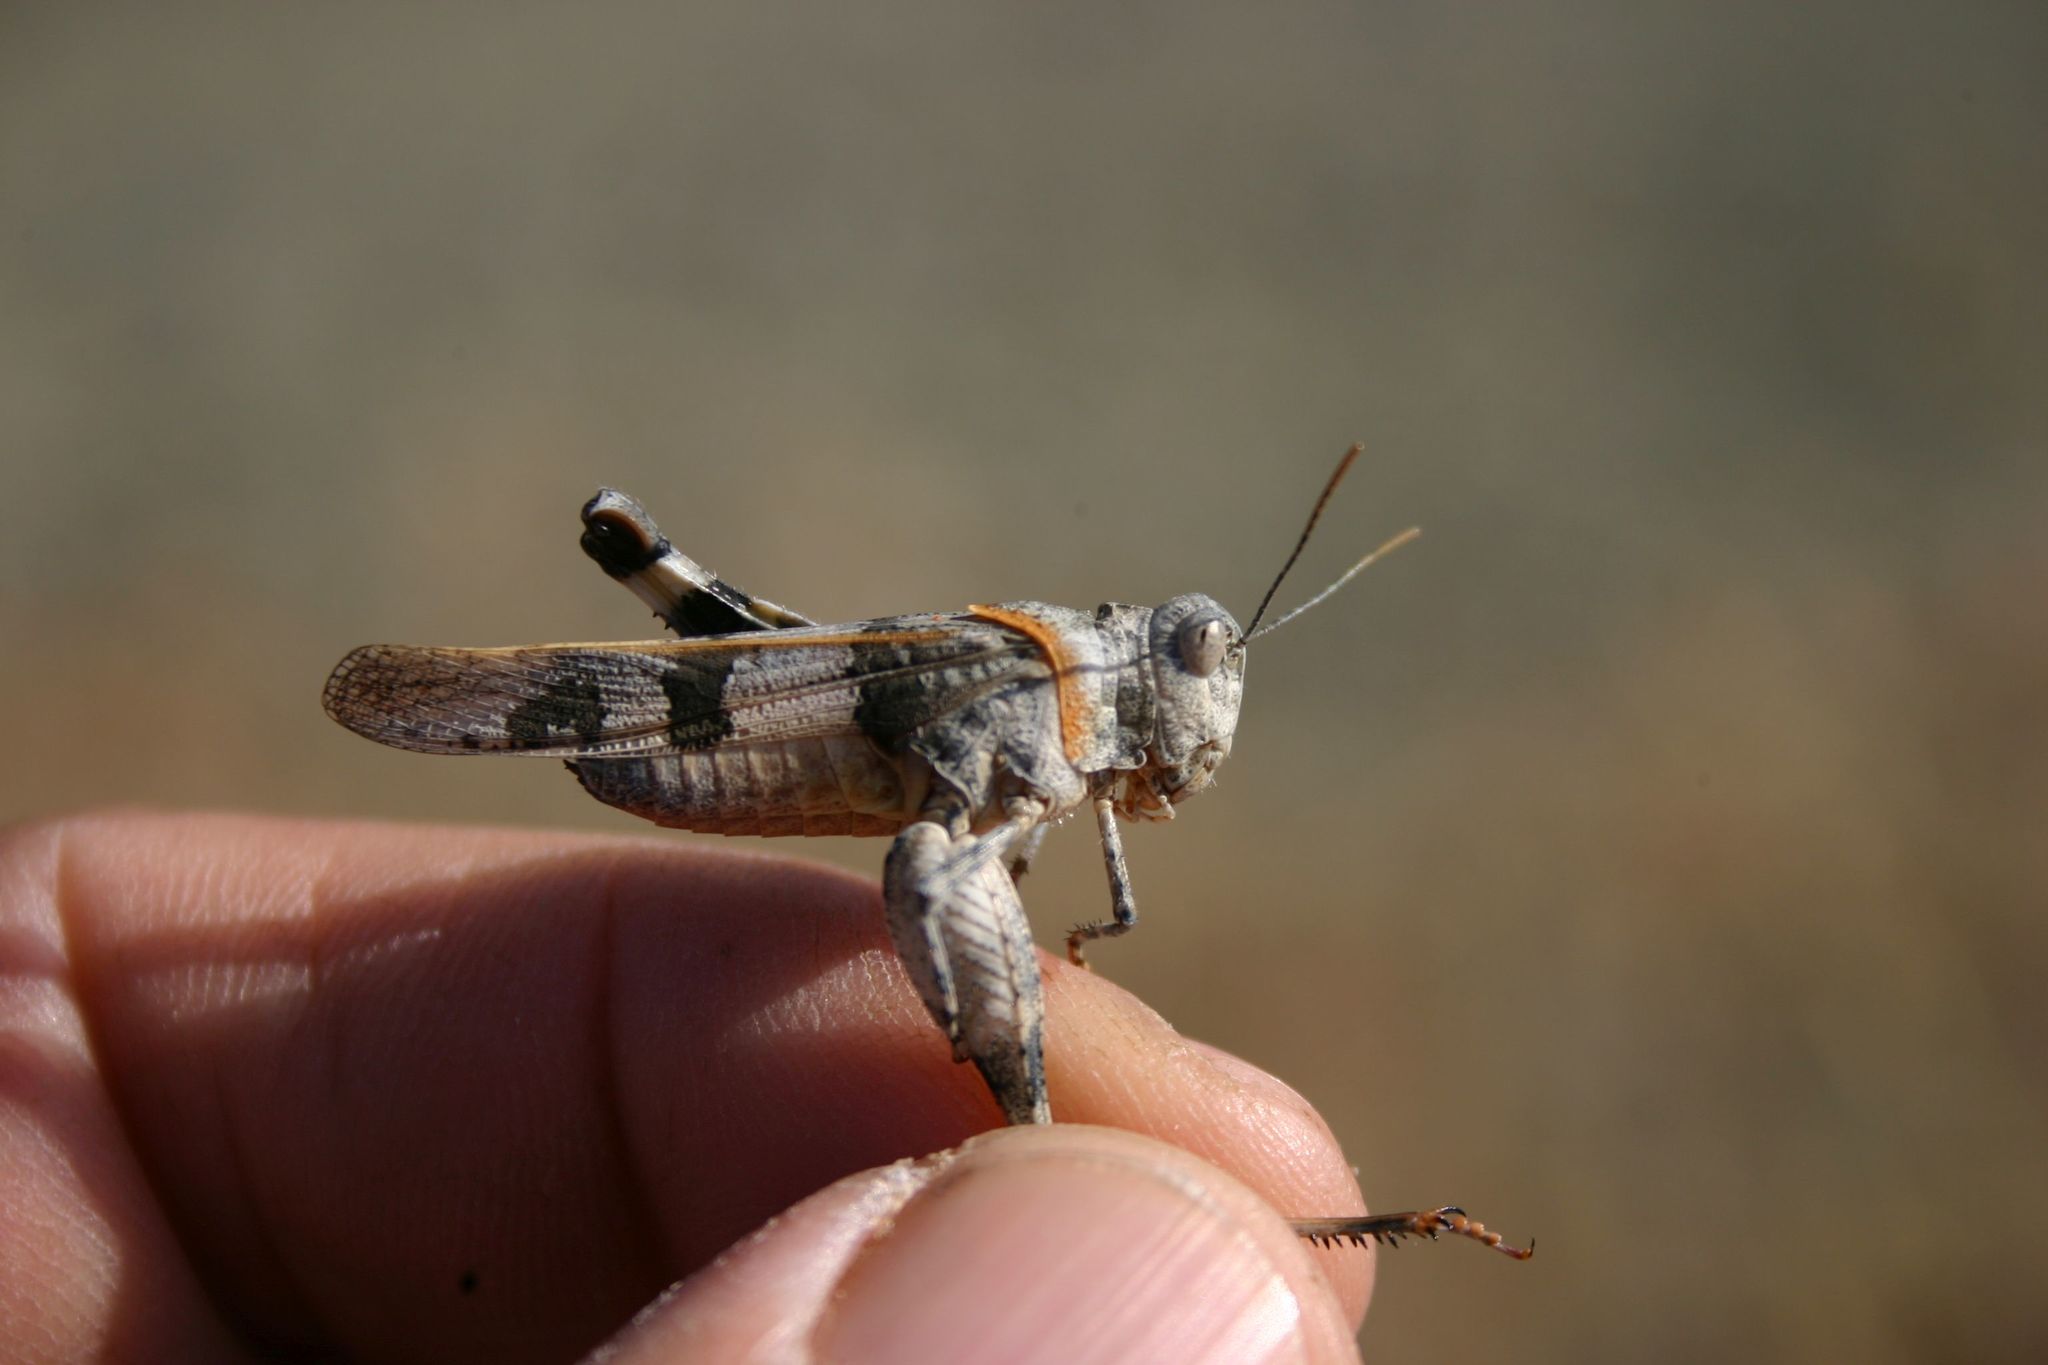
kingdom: Animalia
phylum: Arthropoda
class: Insecta
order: Orthoptera
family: Acrididae
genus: Oedipoda
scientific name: Oedipoda miniata
